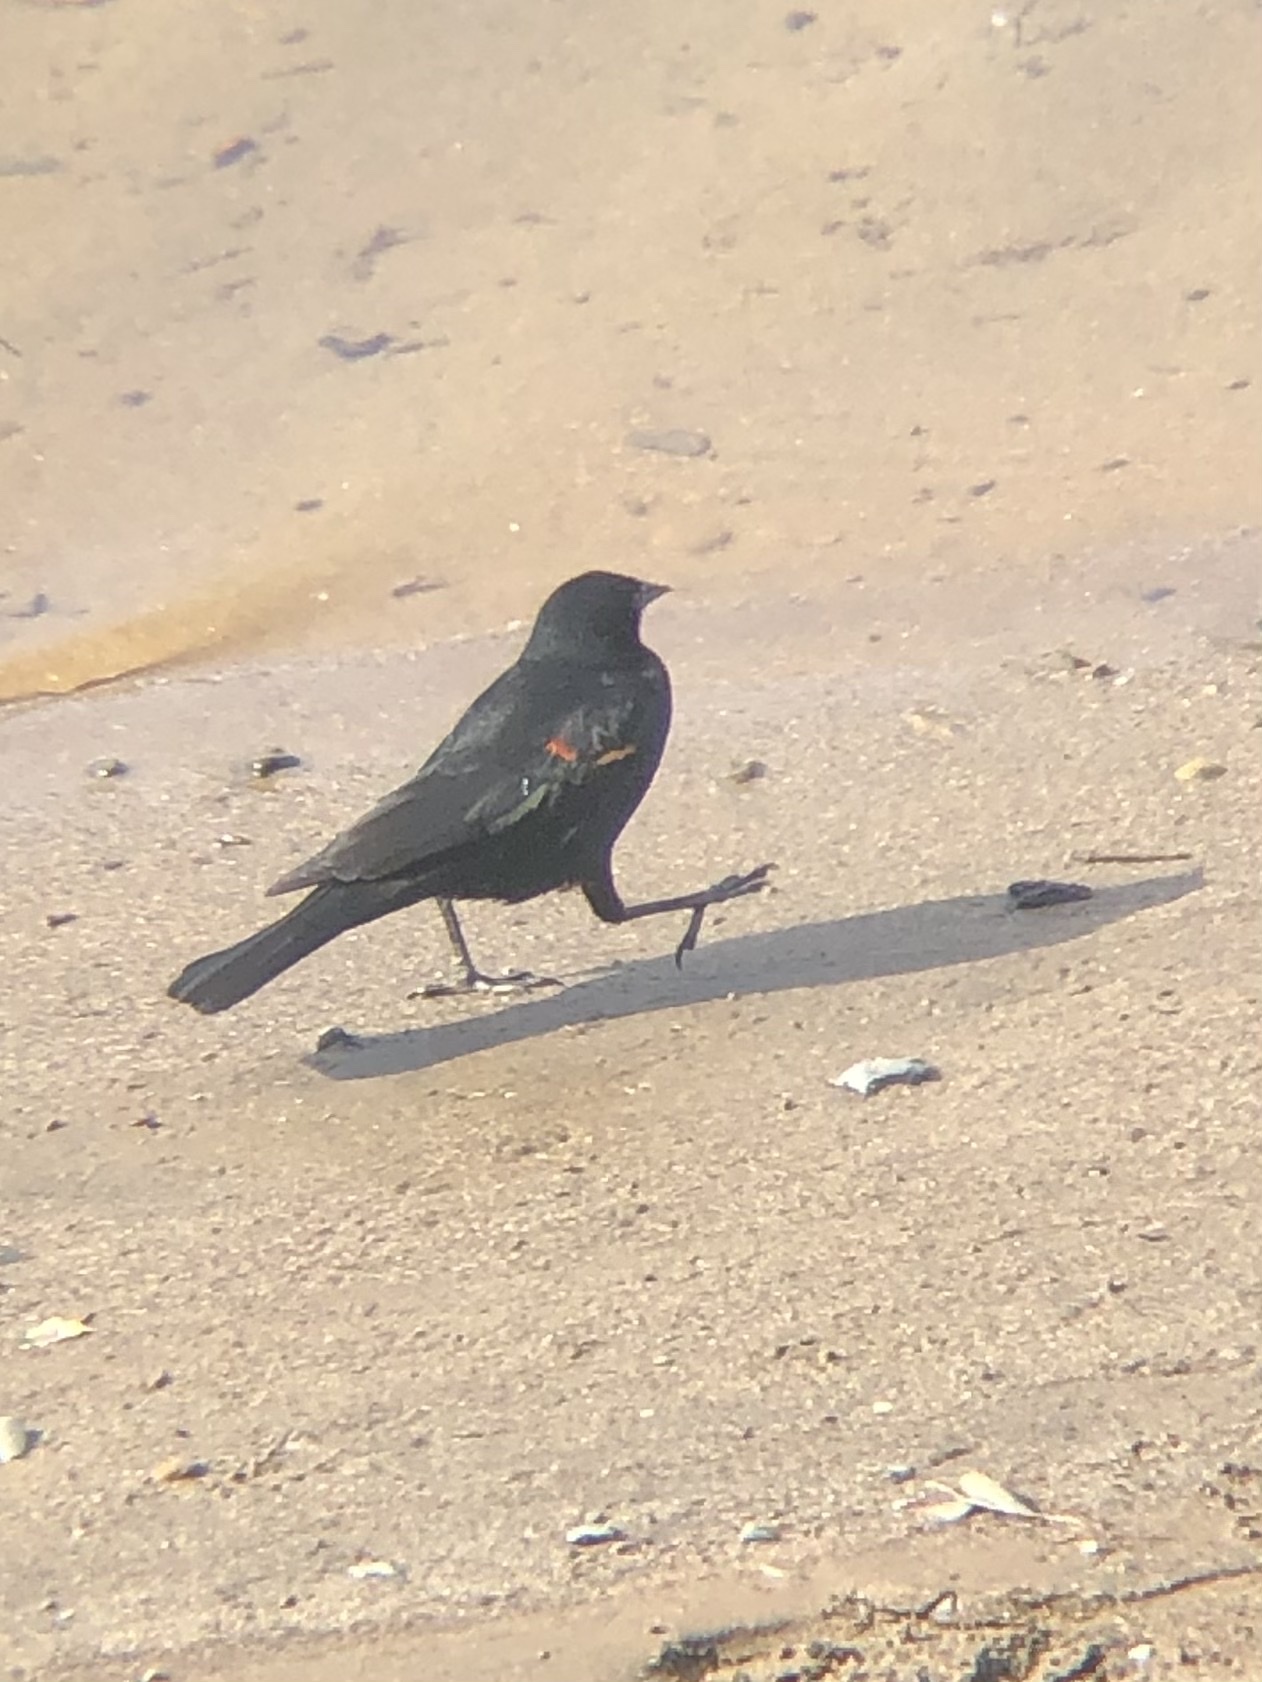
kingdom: Animalia
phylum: Chordata
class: Aves
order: Passeriformes
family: Icteridae
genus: Agelaius
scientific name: Agelaius phoeniceus
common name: Red-winged blackbird
